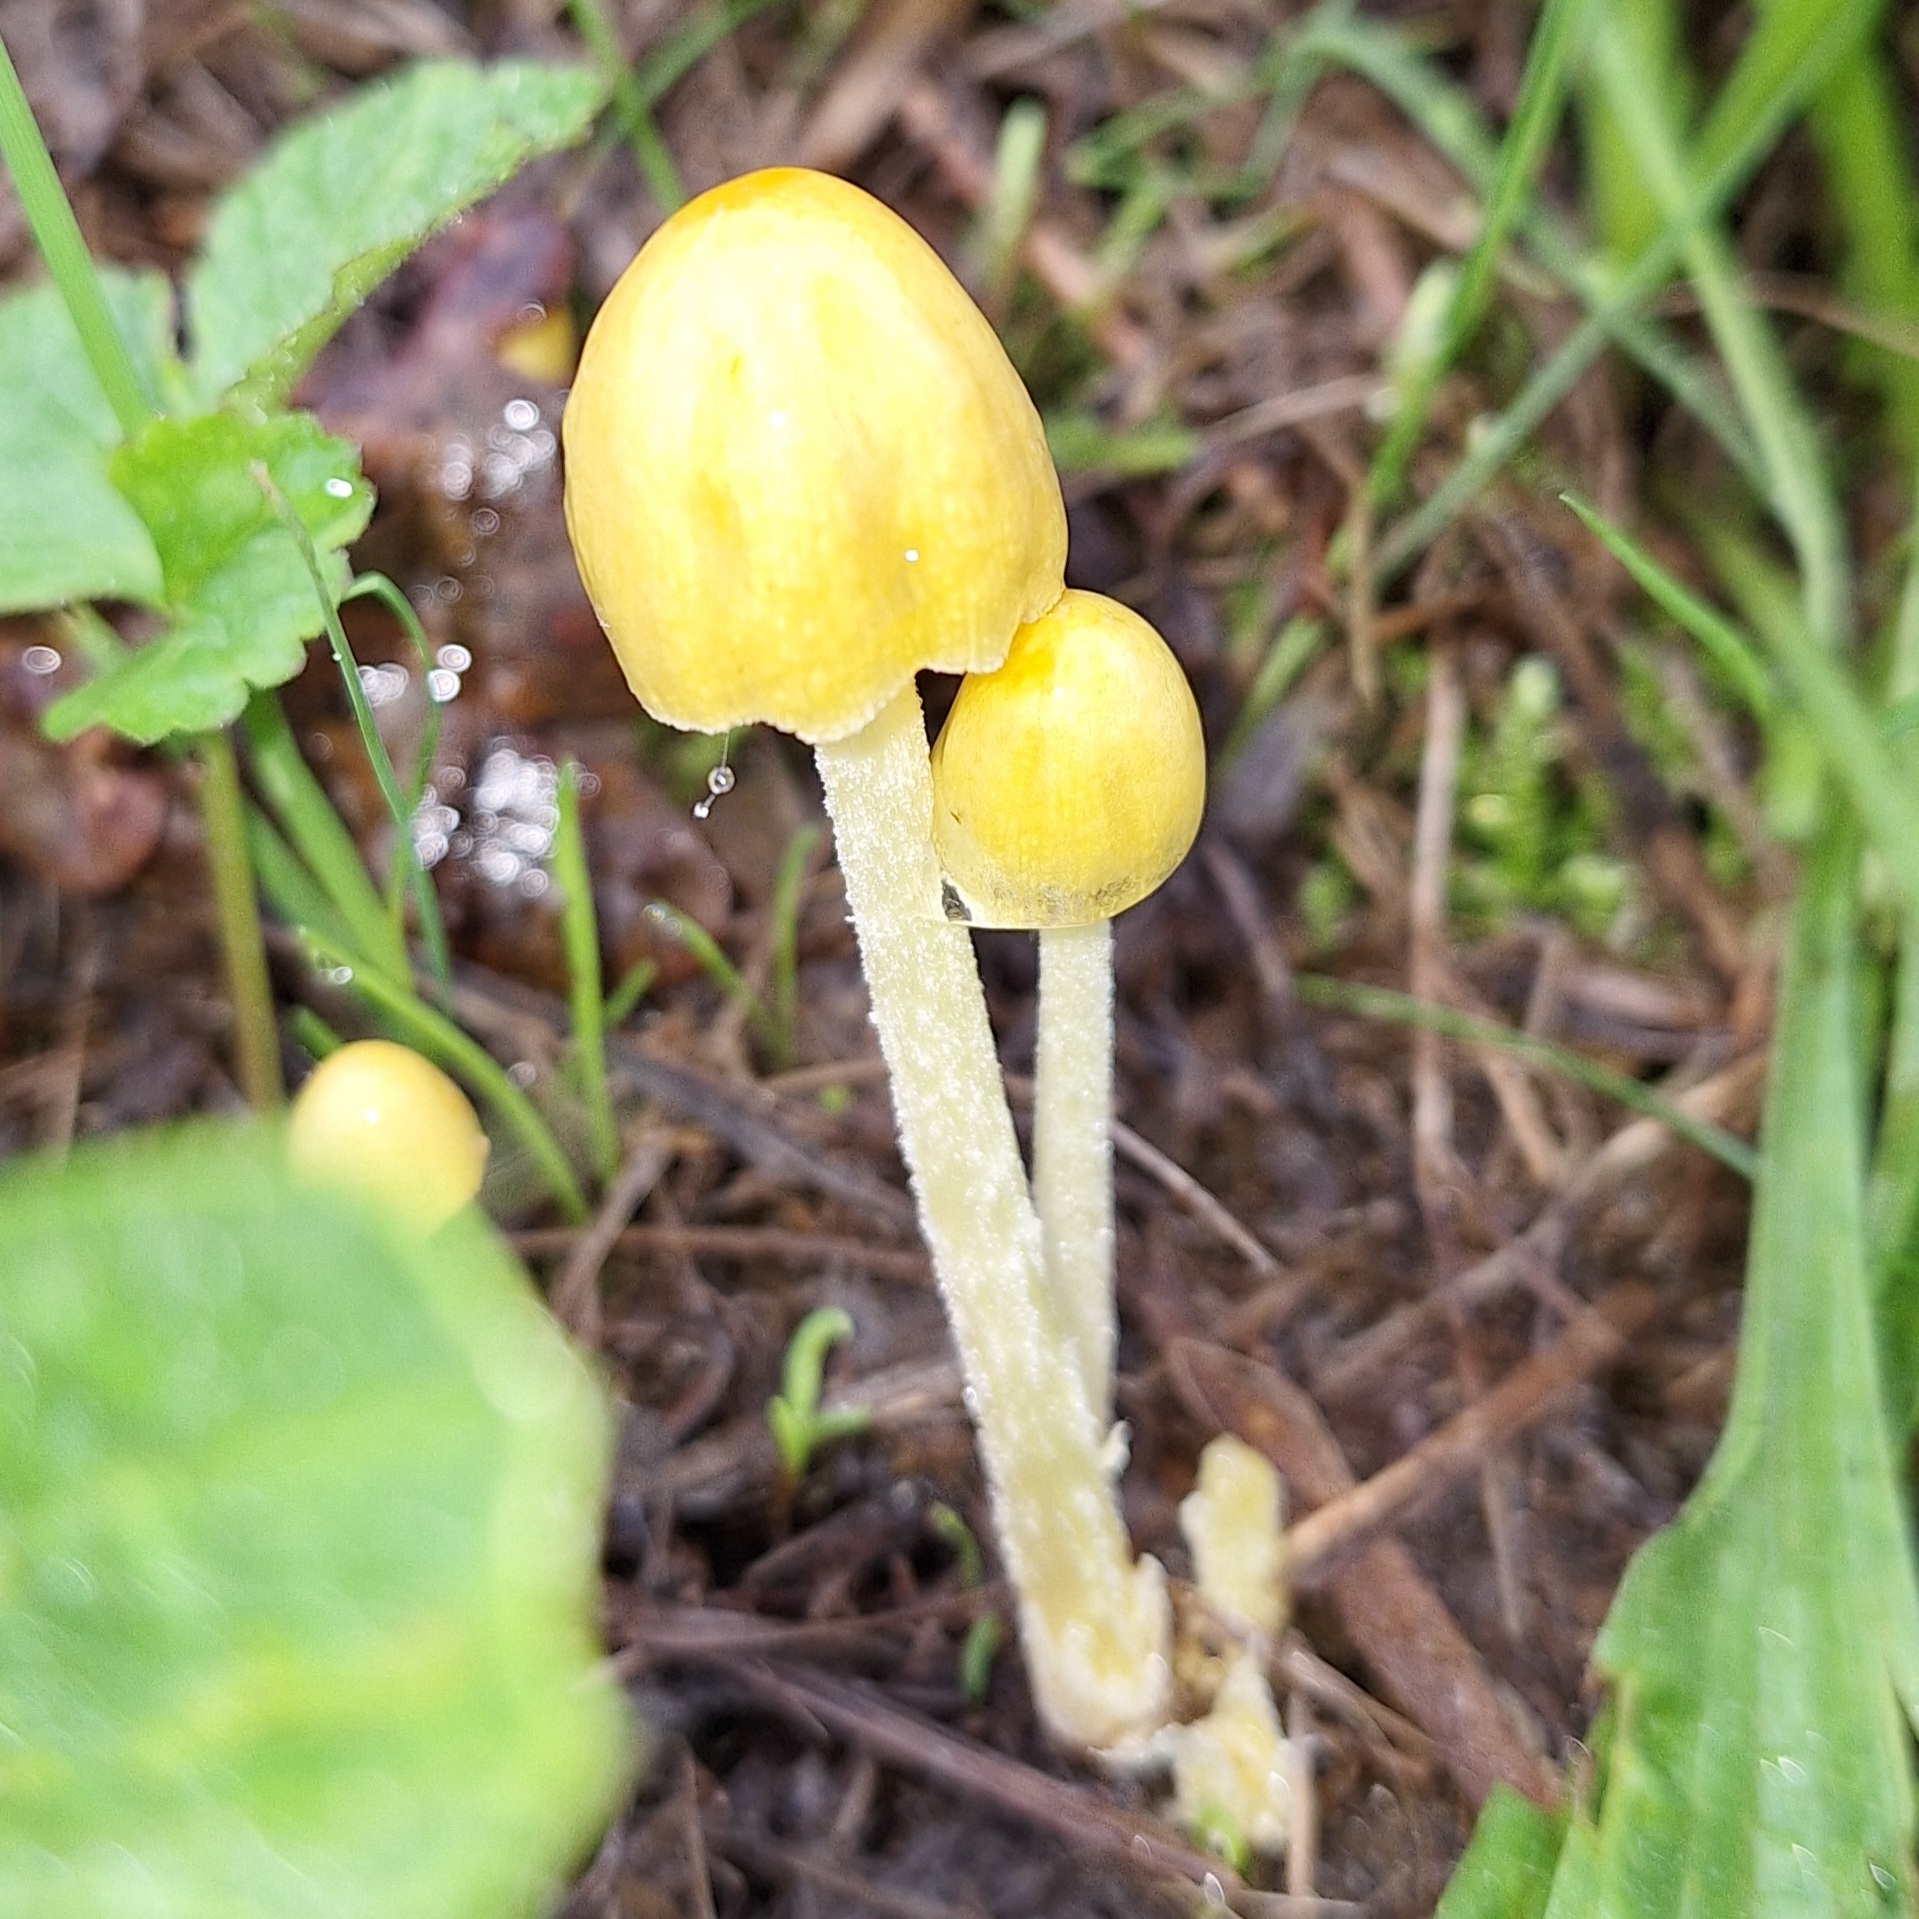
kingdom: Fungi
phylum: Basidiomycota
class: Agaricomycetes
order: Agaricales
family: Bolbitiaceae
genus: Bolbitius
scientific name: Bolbitius titubans
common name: Yellow fieldcap
